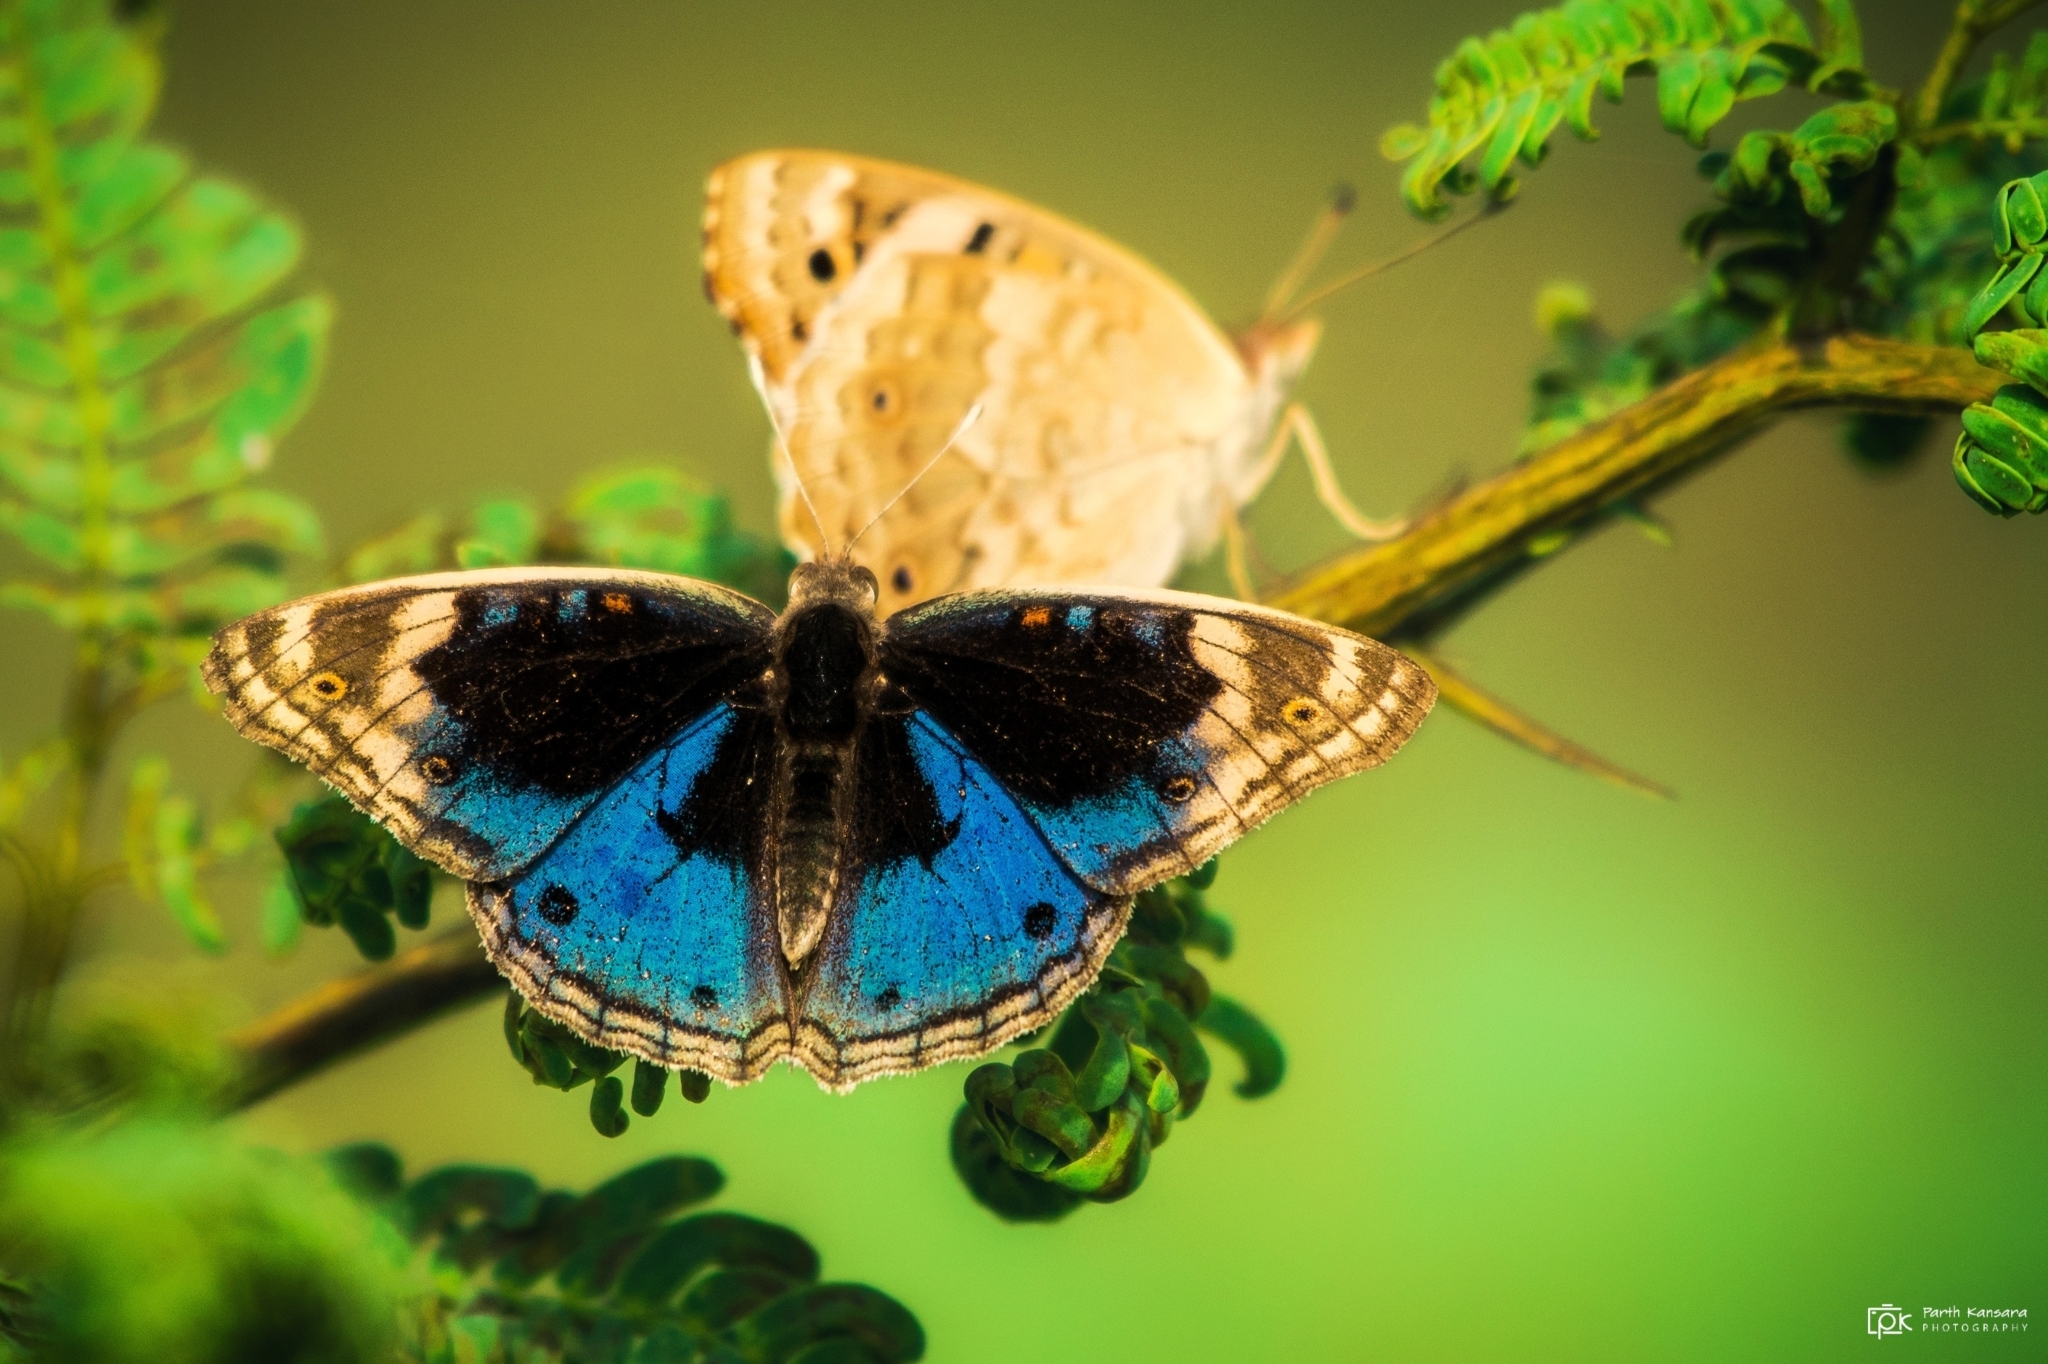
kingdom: Animalia
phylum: Arthropoda
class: Insecta
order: Lepidoptera
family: Nymphalidae
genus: Junonia
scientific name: Junonia orithya
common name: Blue pansy
